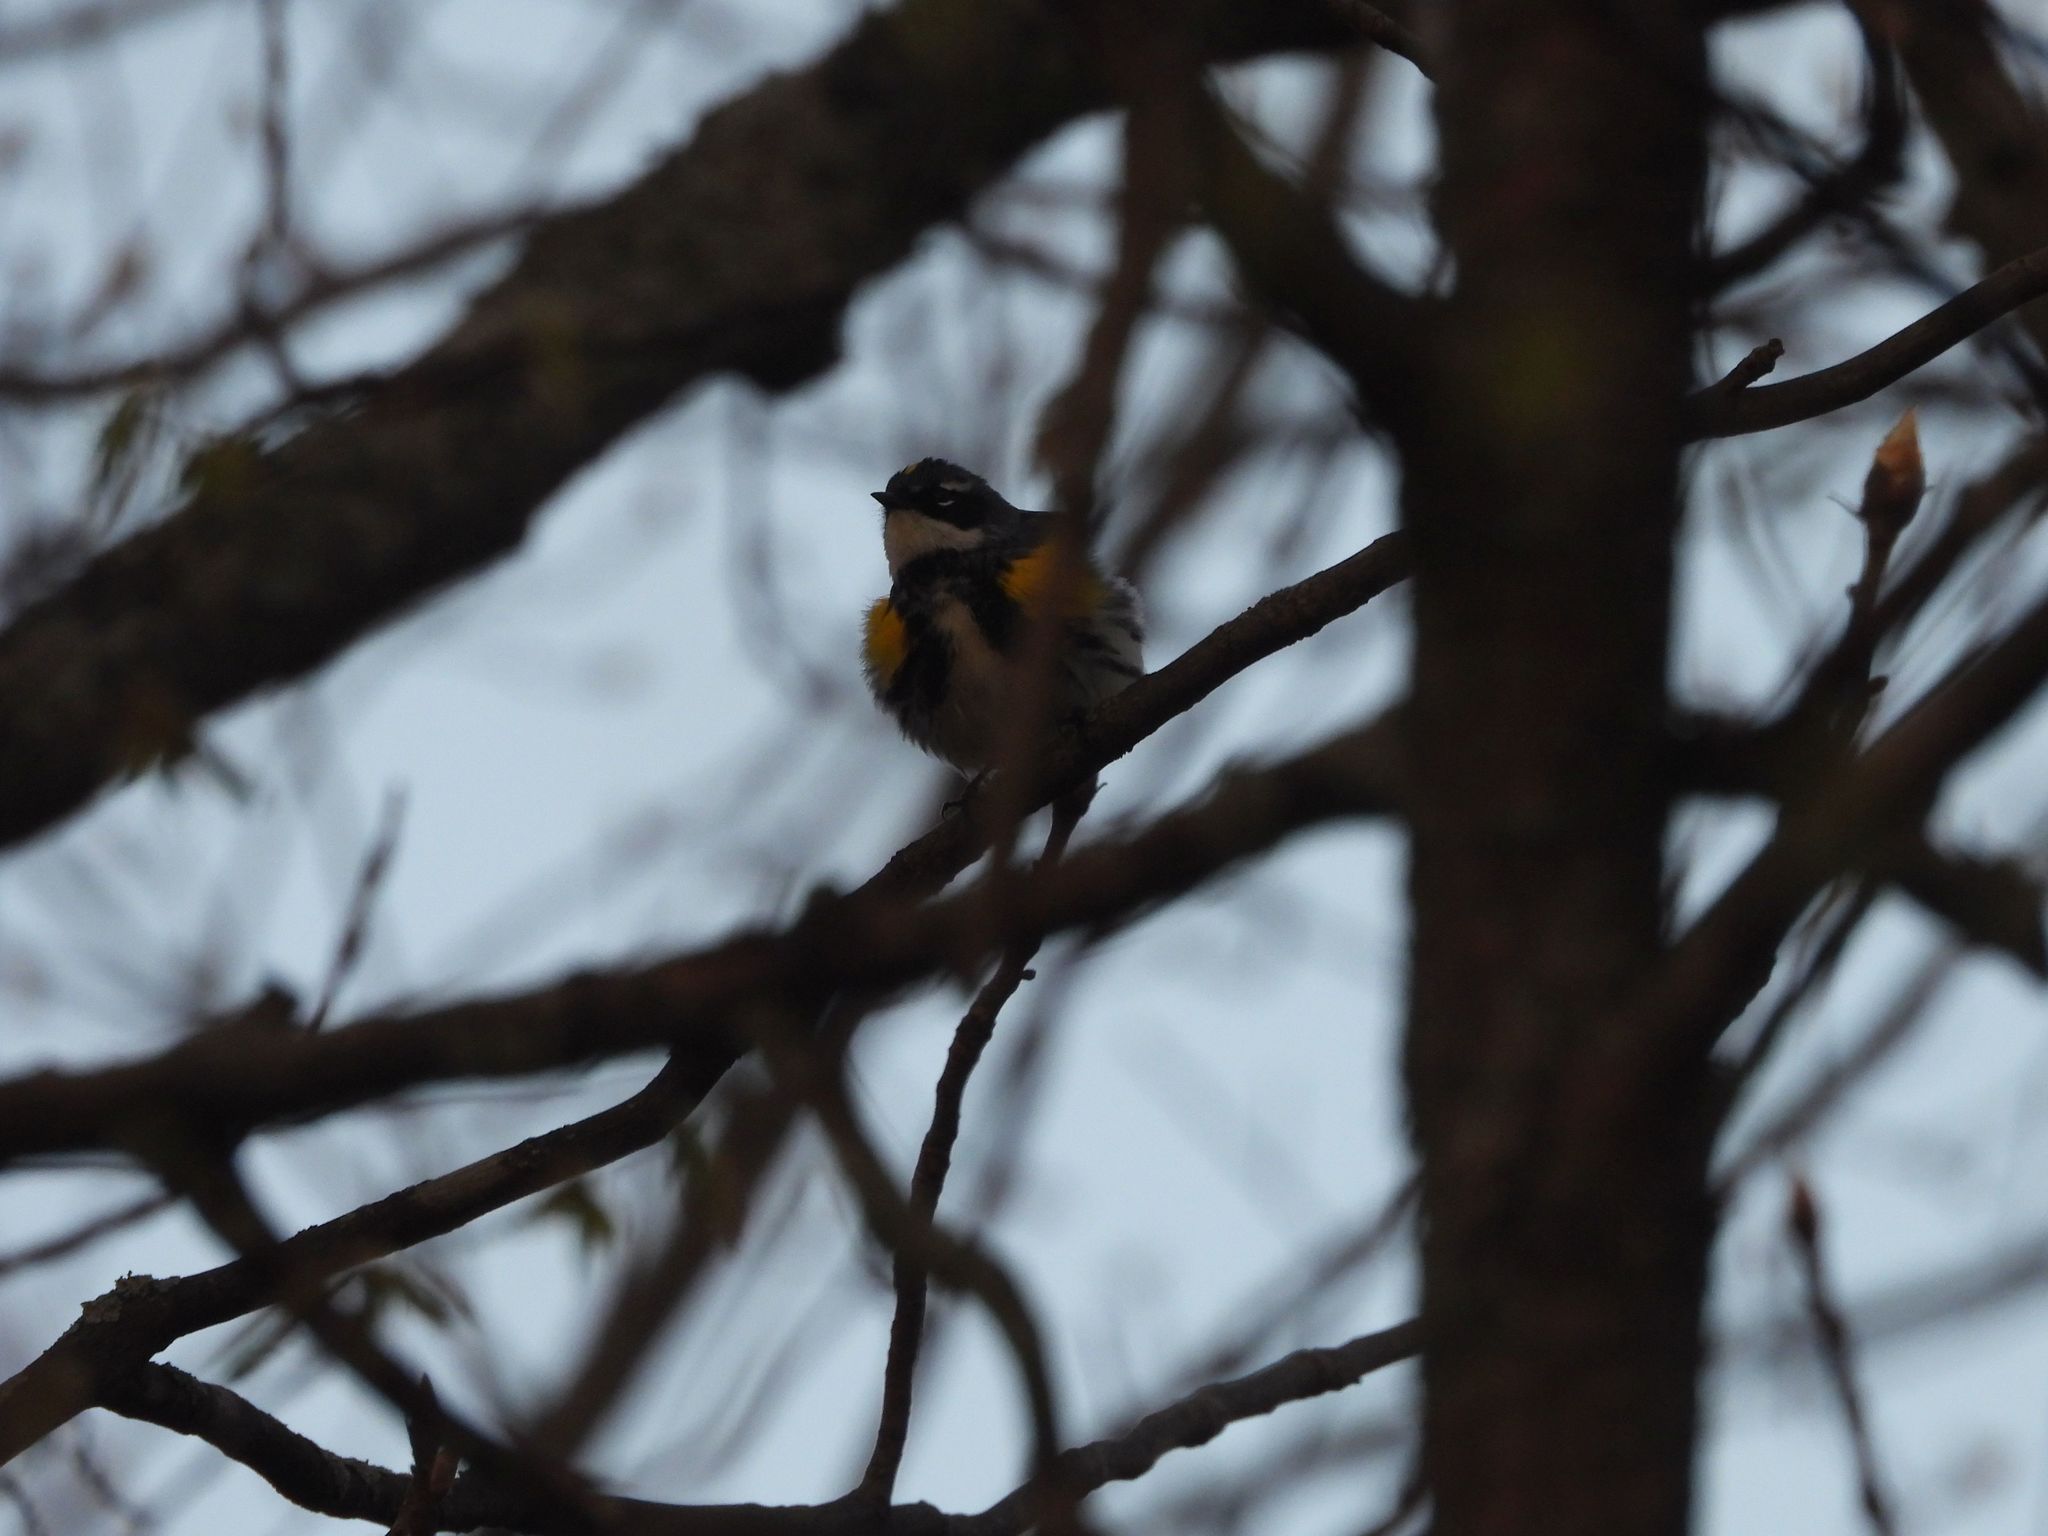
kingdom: Animalia
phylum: Chordata
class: Aves
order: Passeriformes
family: Parulidae
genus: Setophaga
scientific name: Setophaga coronata
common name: Myrtle warbler
